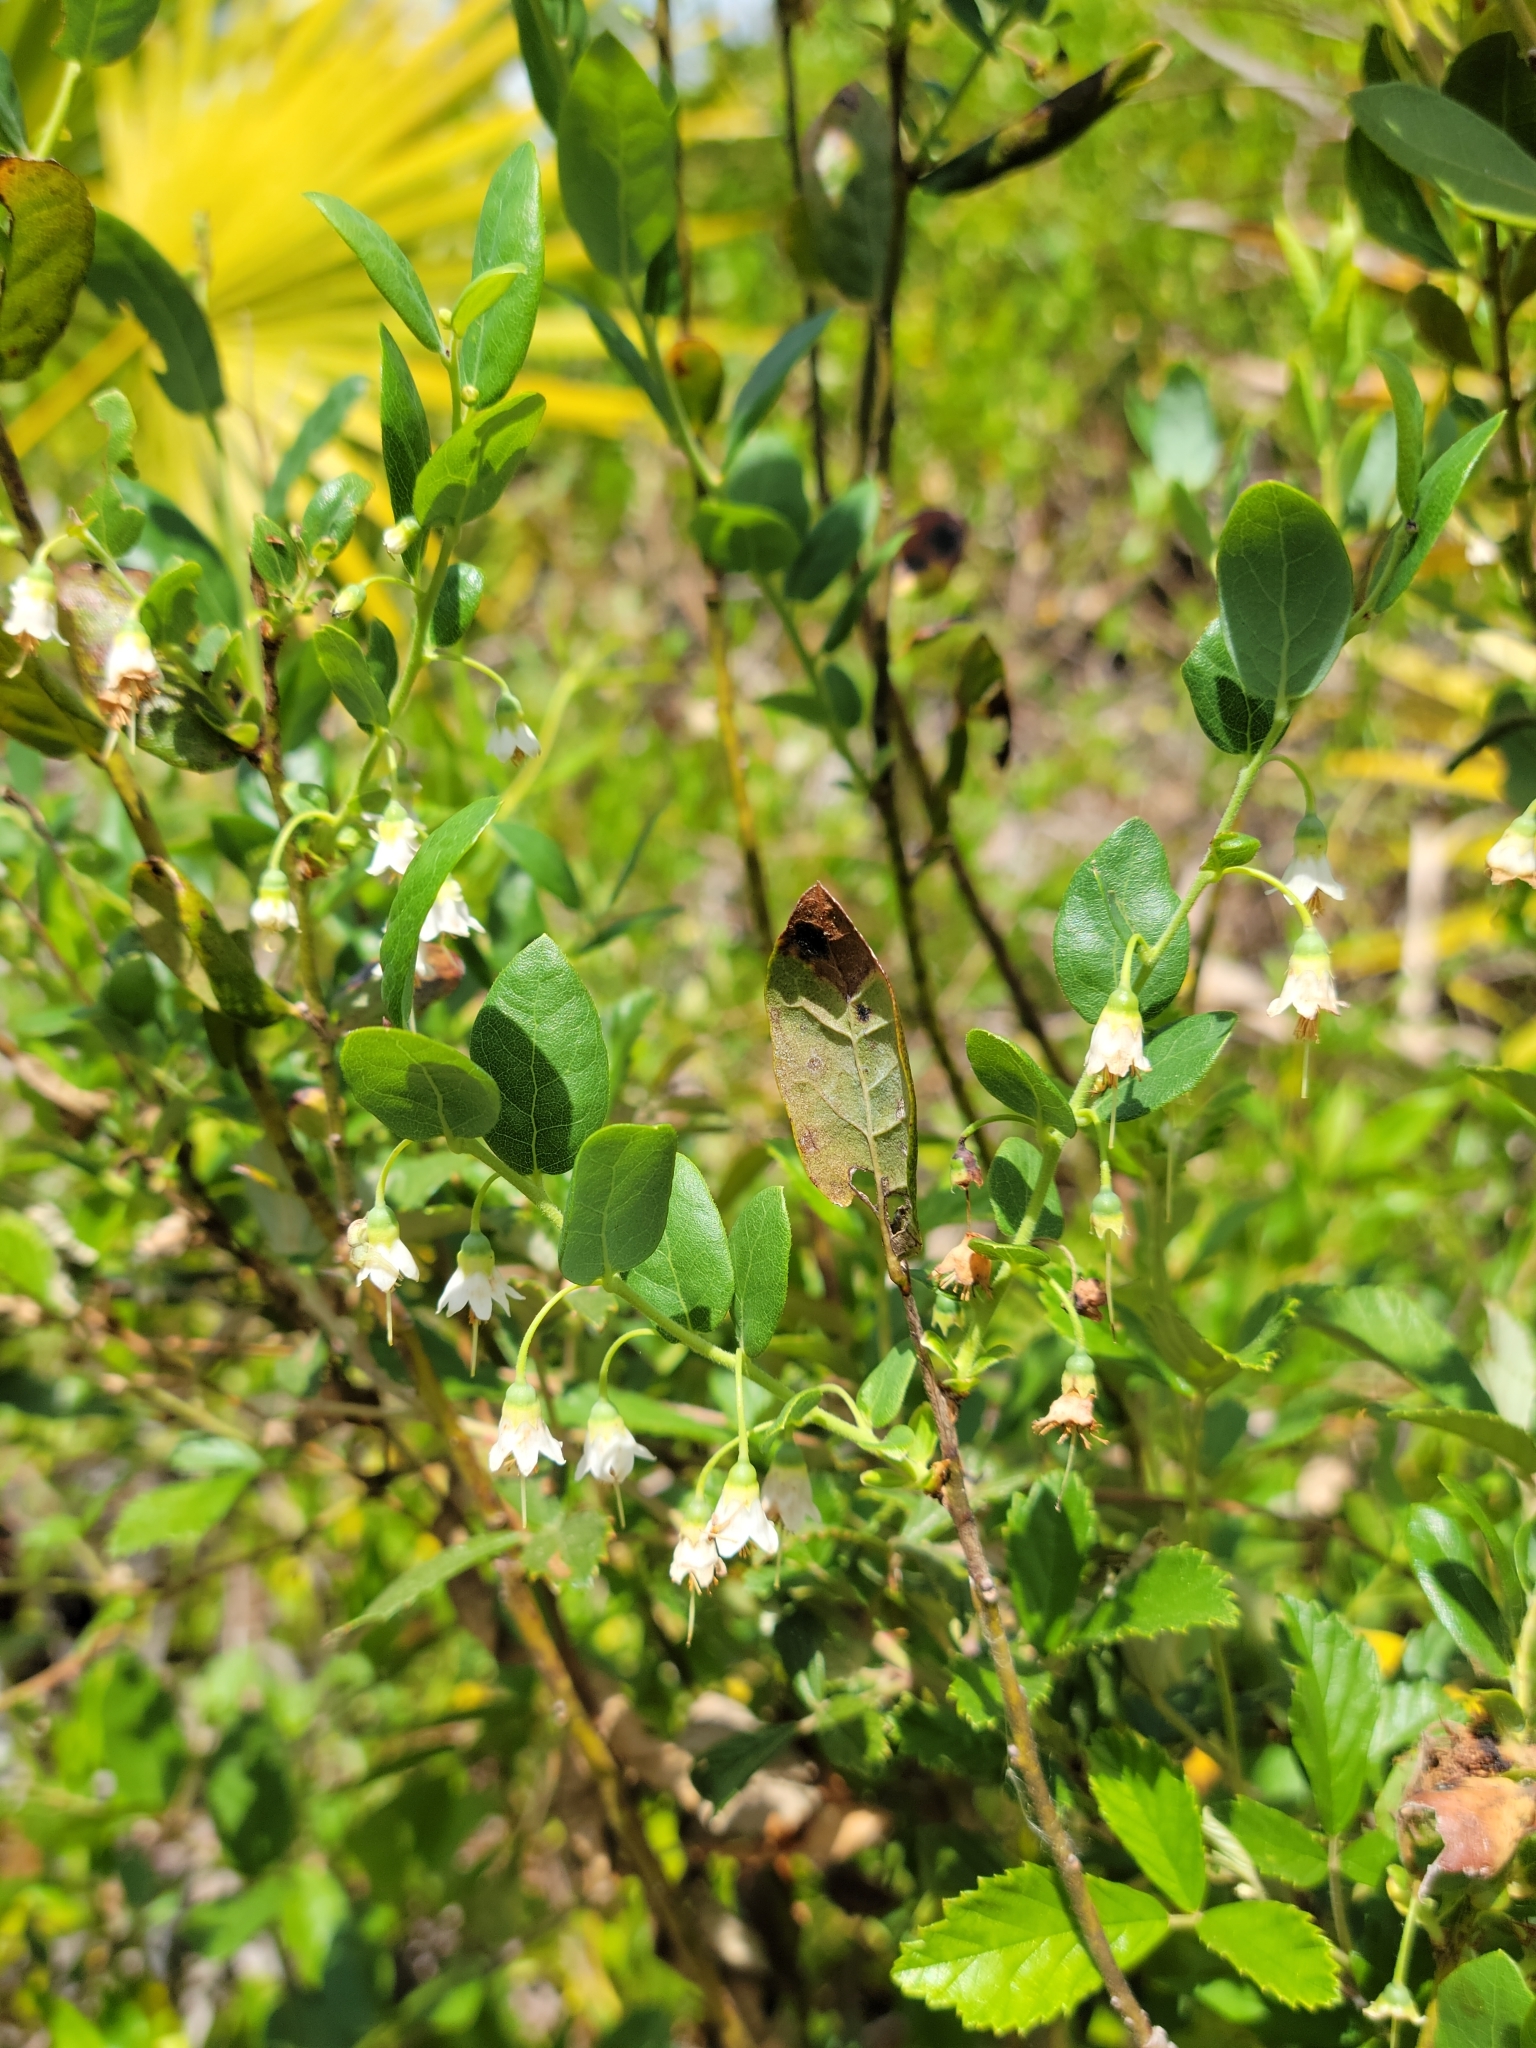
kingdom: Plantae
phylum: Tracheophyta
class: Magnoliopsida
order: Ericales
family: Ericaceae
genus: Vaccinium
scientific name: Vaccinium stamineum
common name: Deerberry
